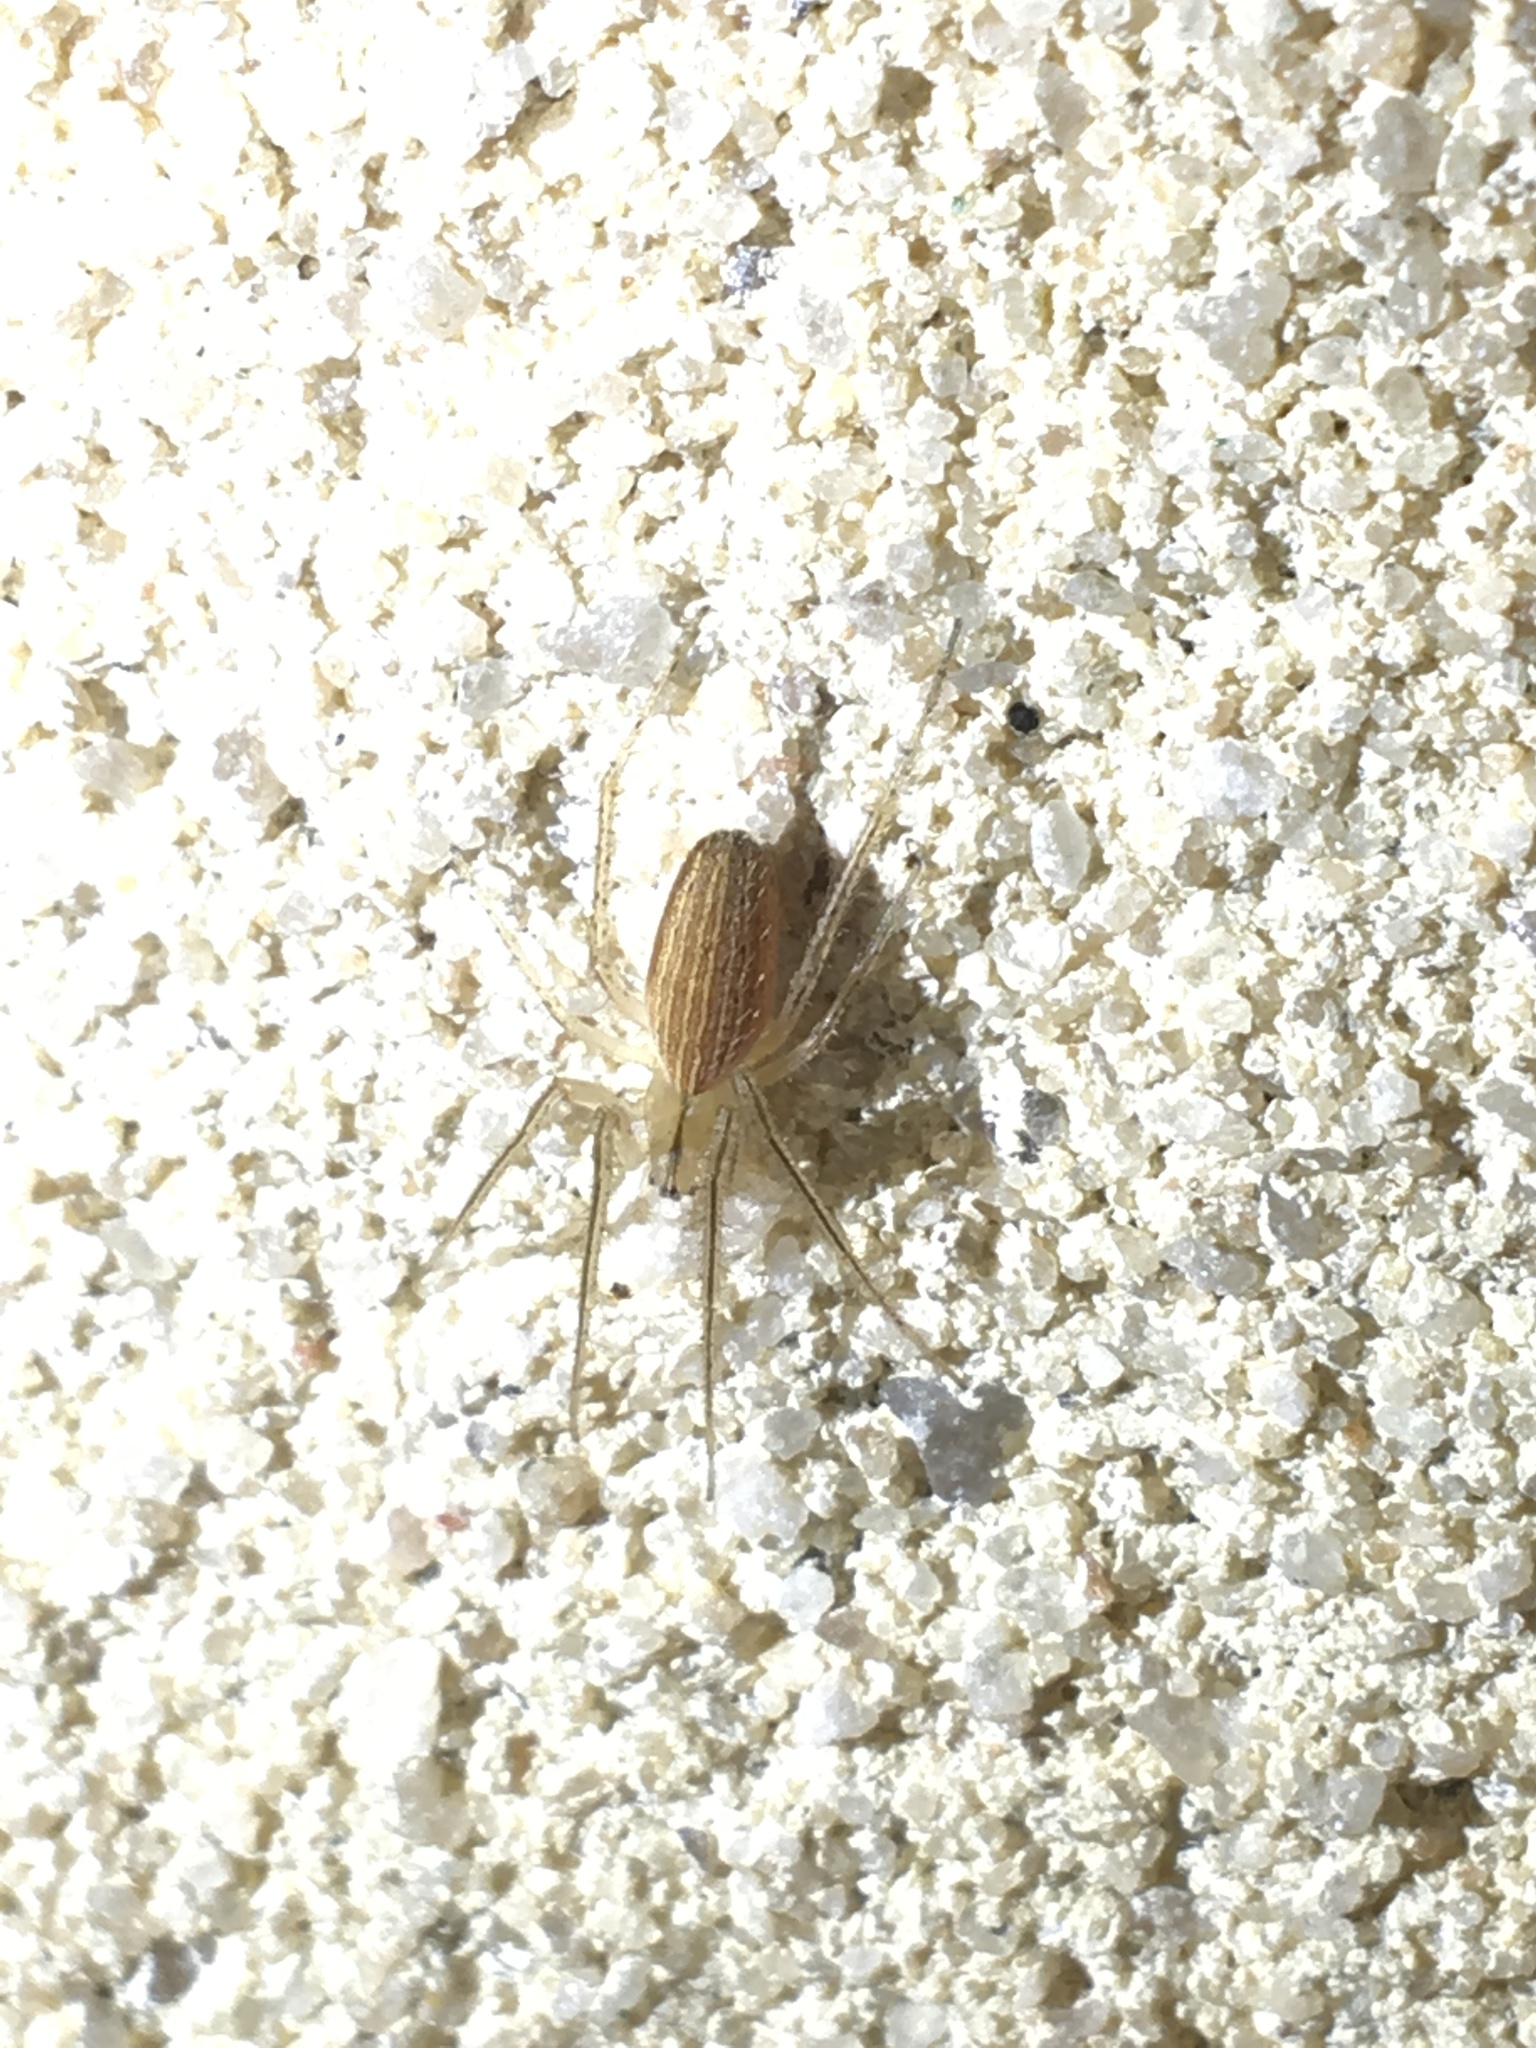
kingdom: Animalia
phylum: Arthropoda
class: Arachnida
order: Araneae
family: Araneidae
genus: Larinia
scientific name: Larinia directa
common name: Orb weavers
